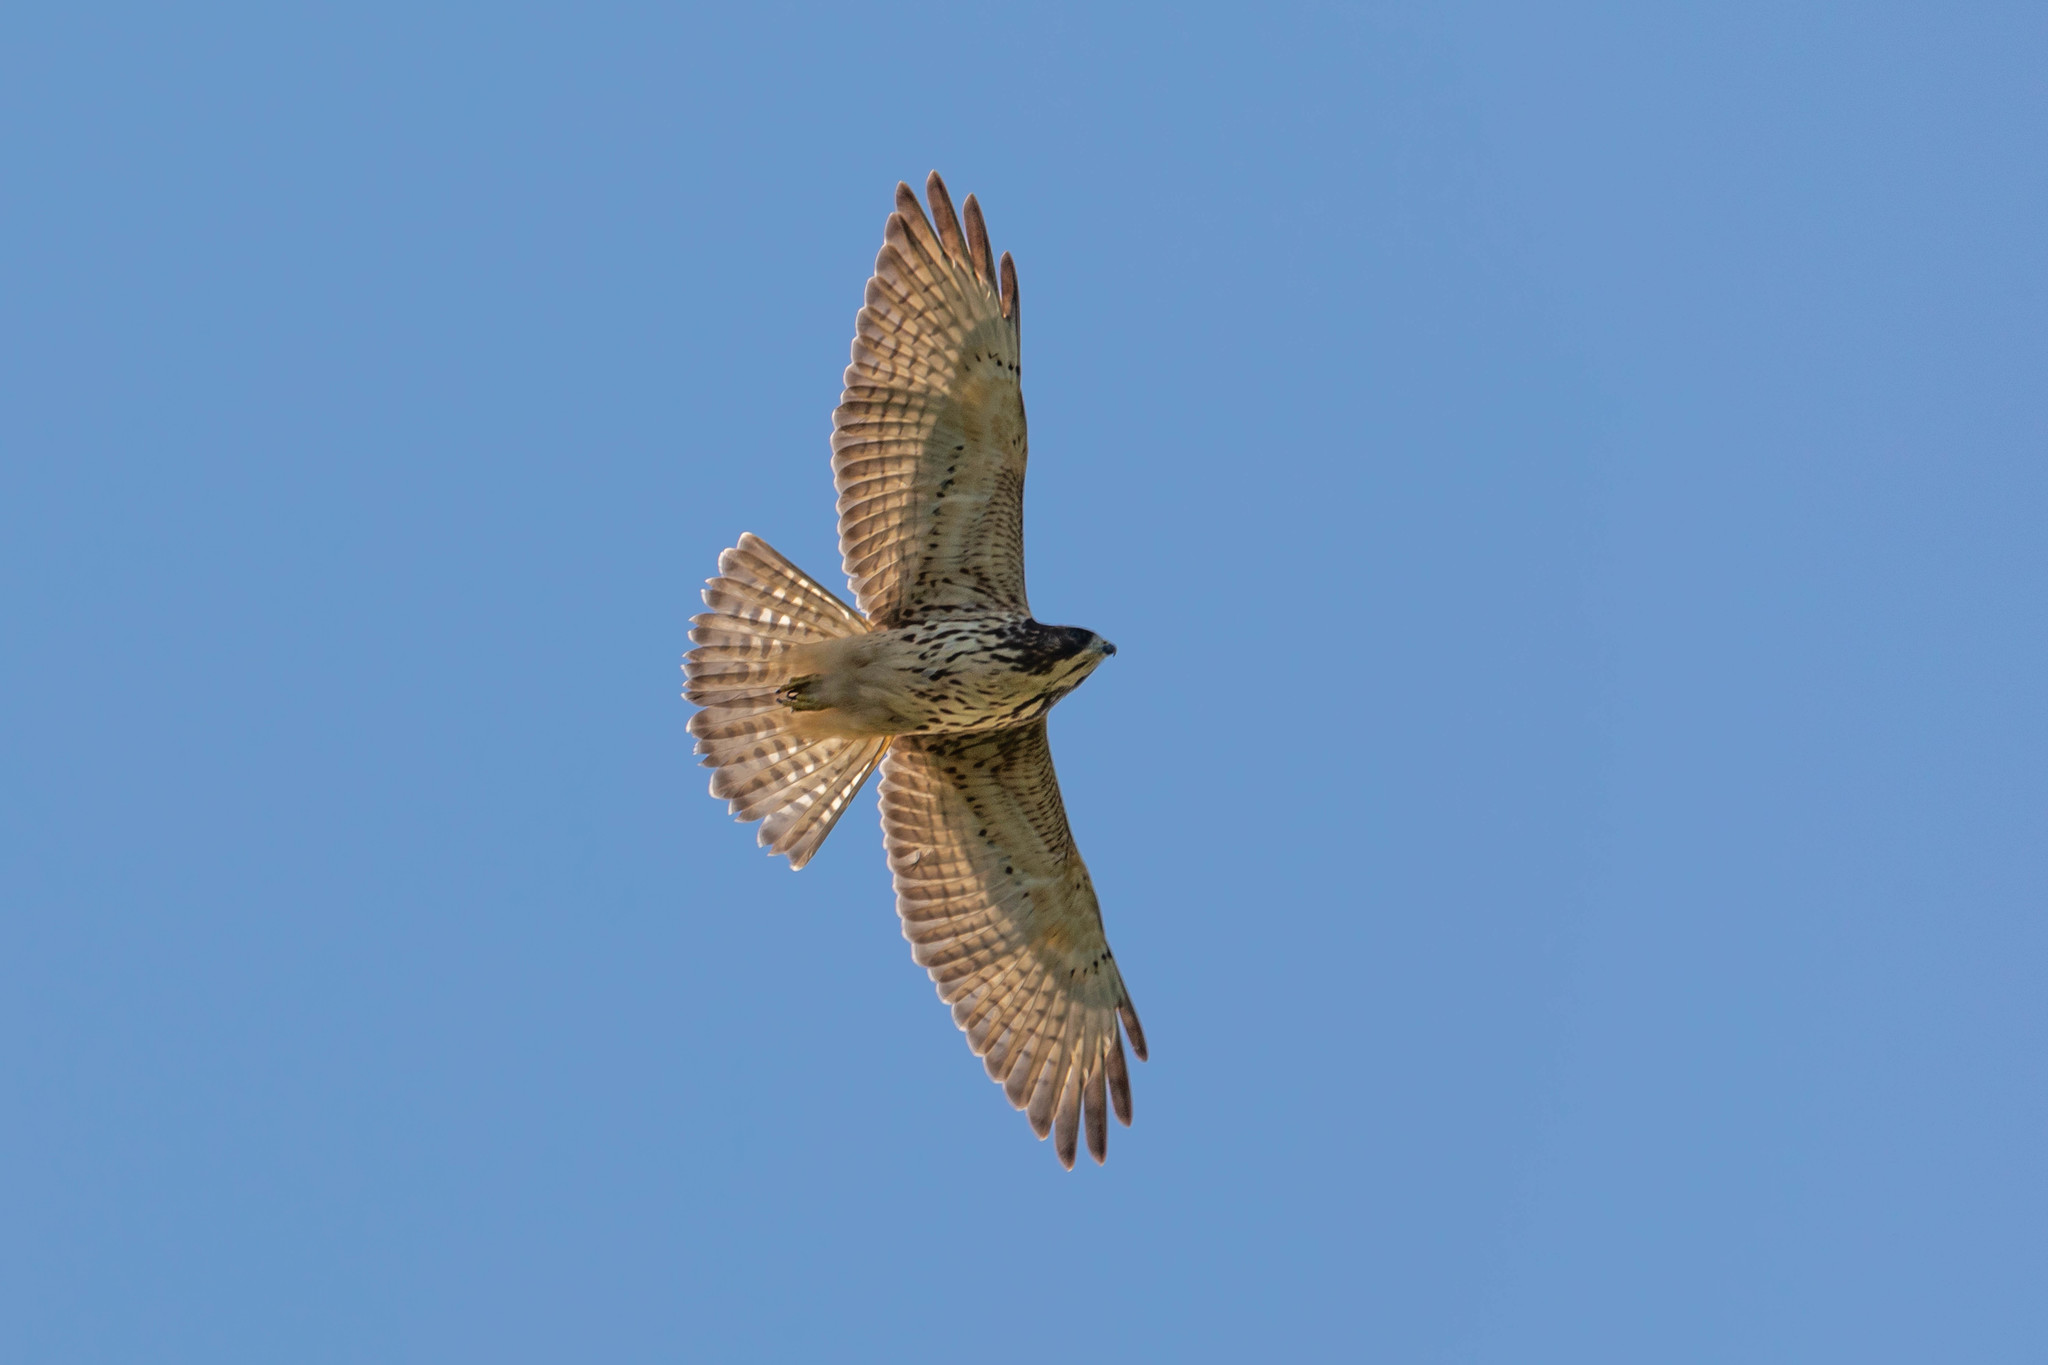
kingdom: Animalia
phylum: Chordata
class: Aves
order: Accipitriformes
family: Accipitridae
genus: Buteo
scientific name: Buteo platypterus
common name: Broad-winged hawk
